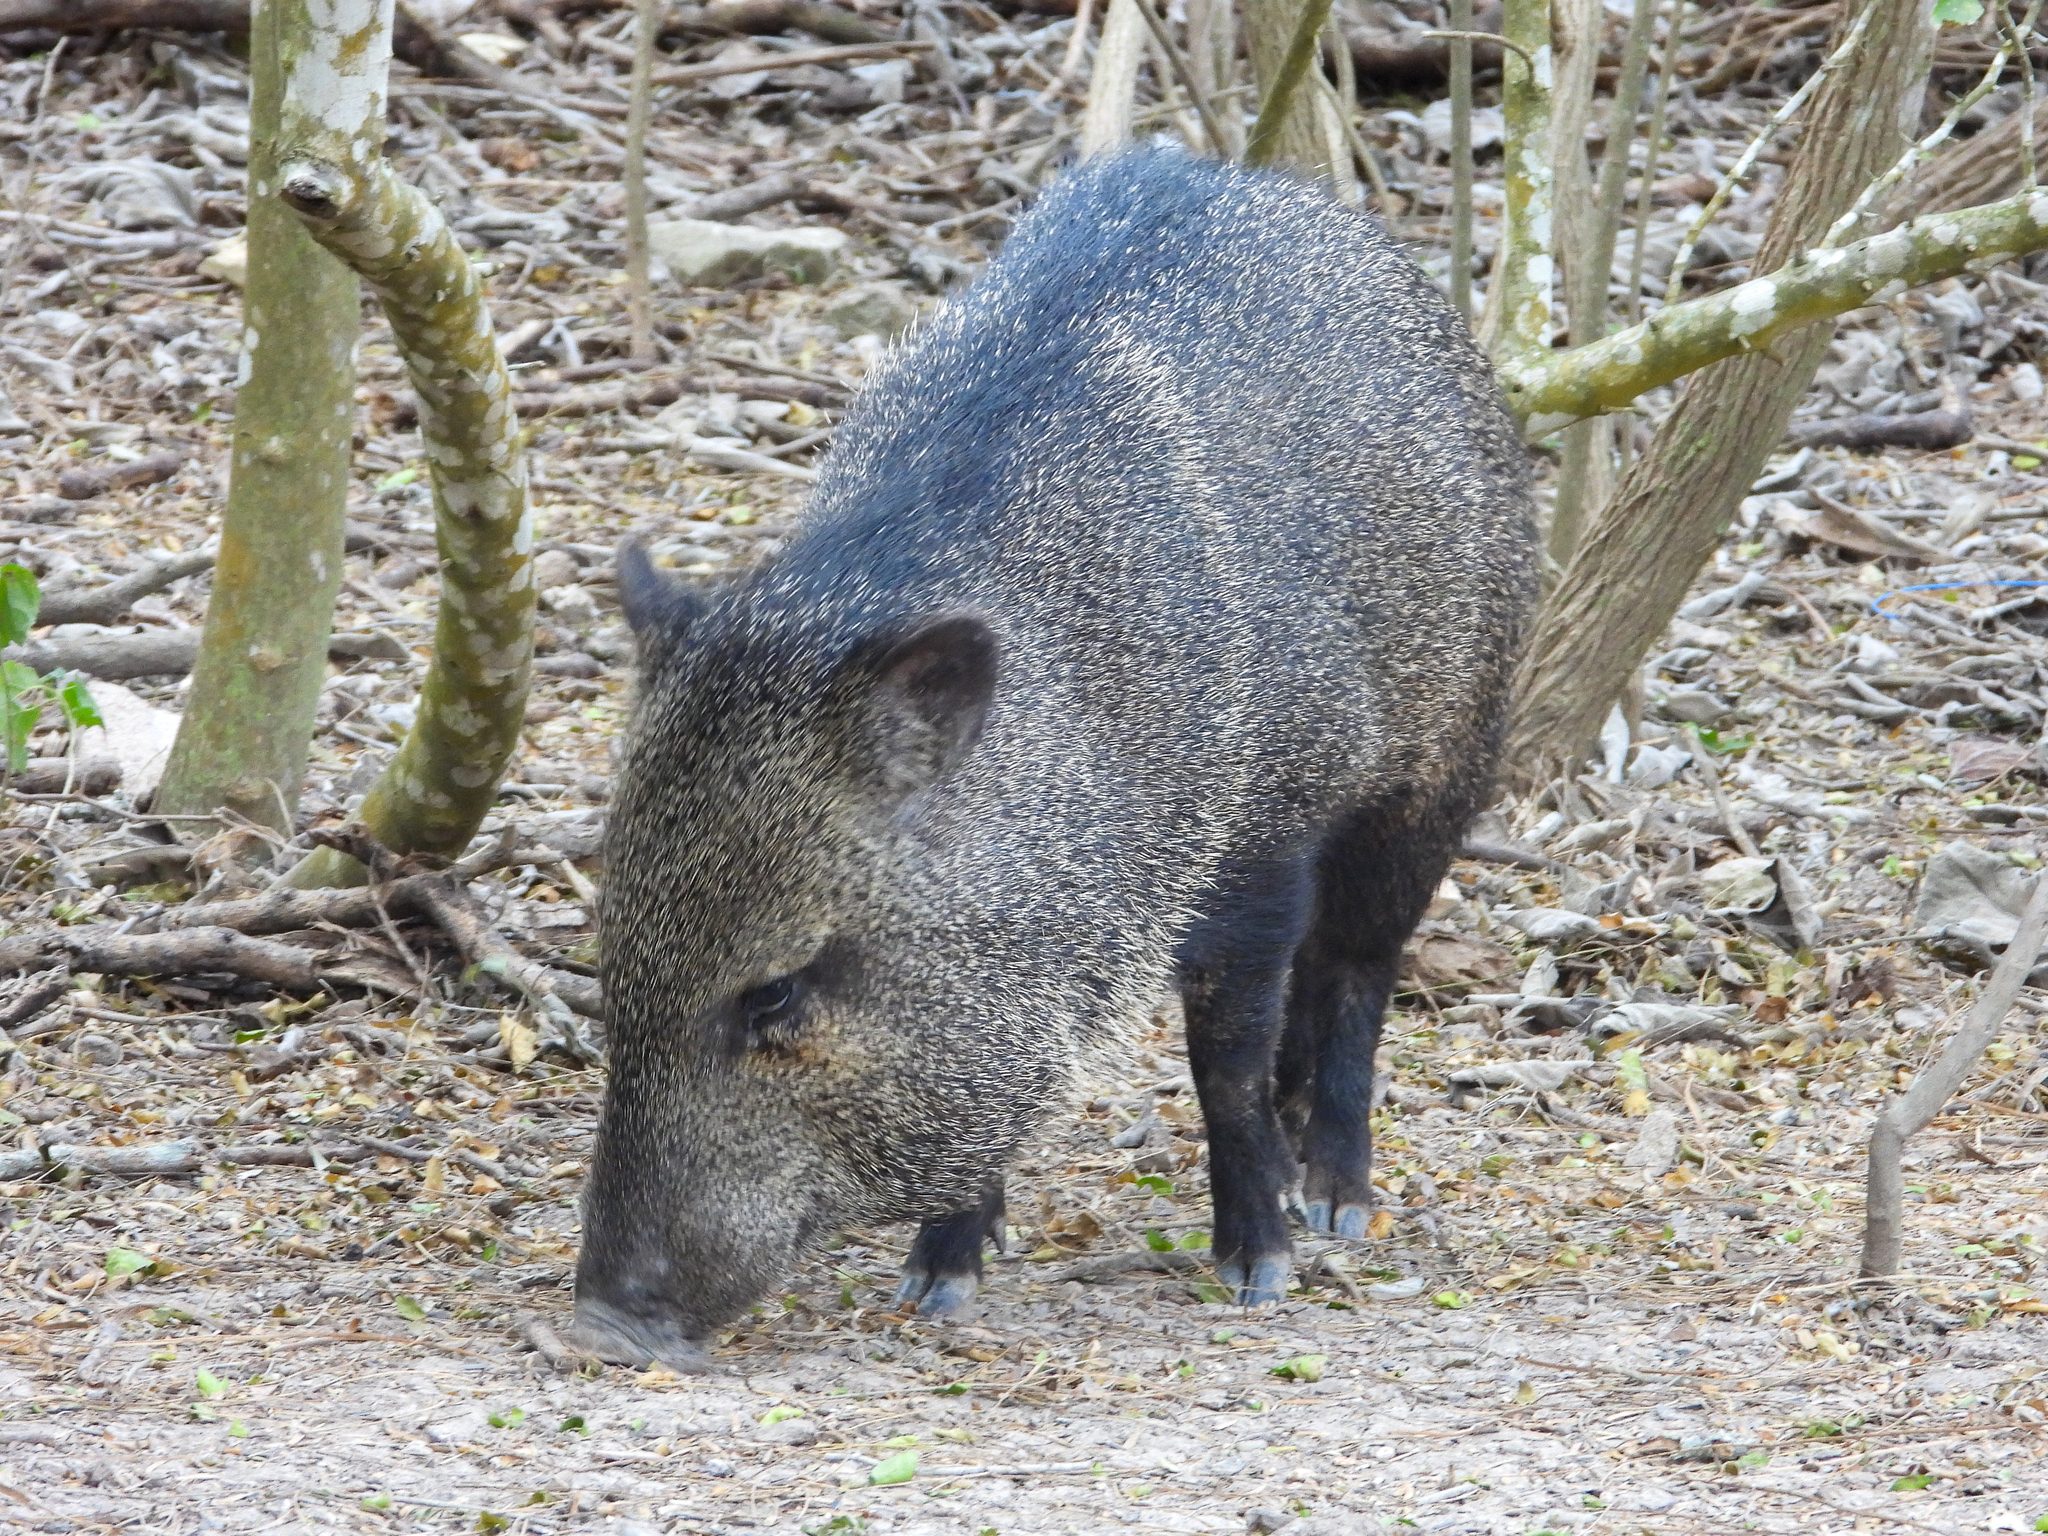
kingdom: Animalia
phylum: Chordata
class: Mammalia
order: Artiodactyla
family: Tayassuidae
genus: Pecari
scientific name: Pecari tajacu
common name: Collared peccary
